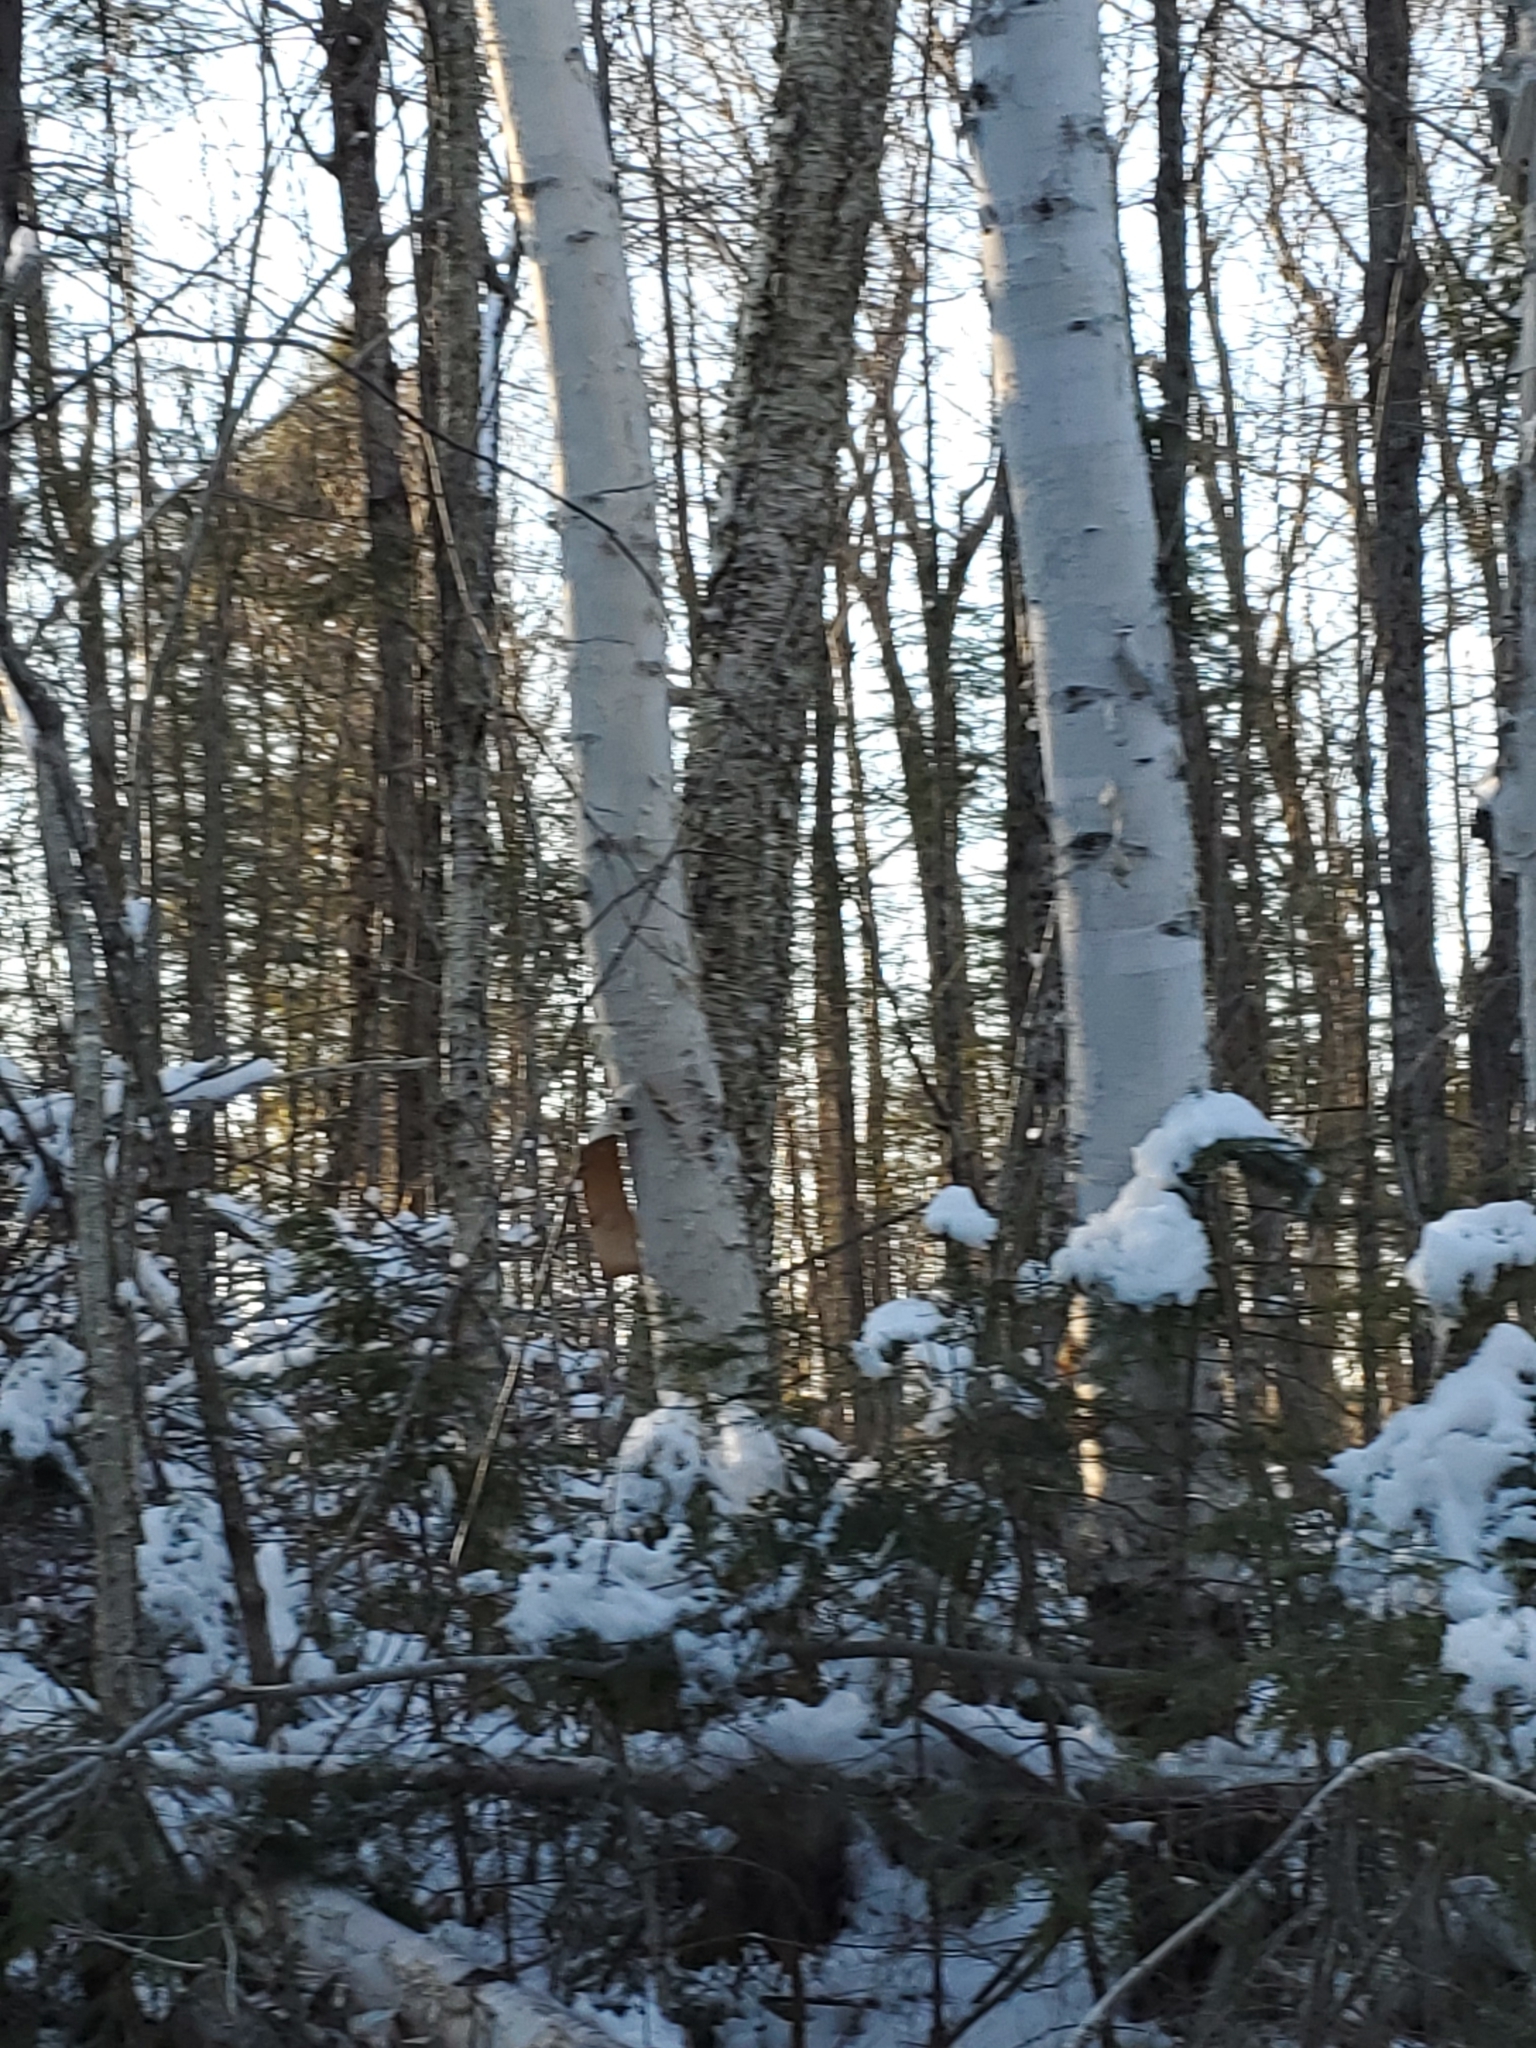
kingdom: Plantae
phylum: Tracheophyta
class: Magnoliopsida
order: Fagales
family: Betulaceae
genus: Betula
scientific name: Betula papyrifera
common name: Paper birch
